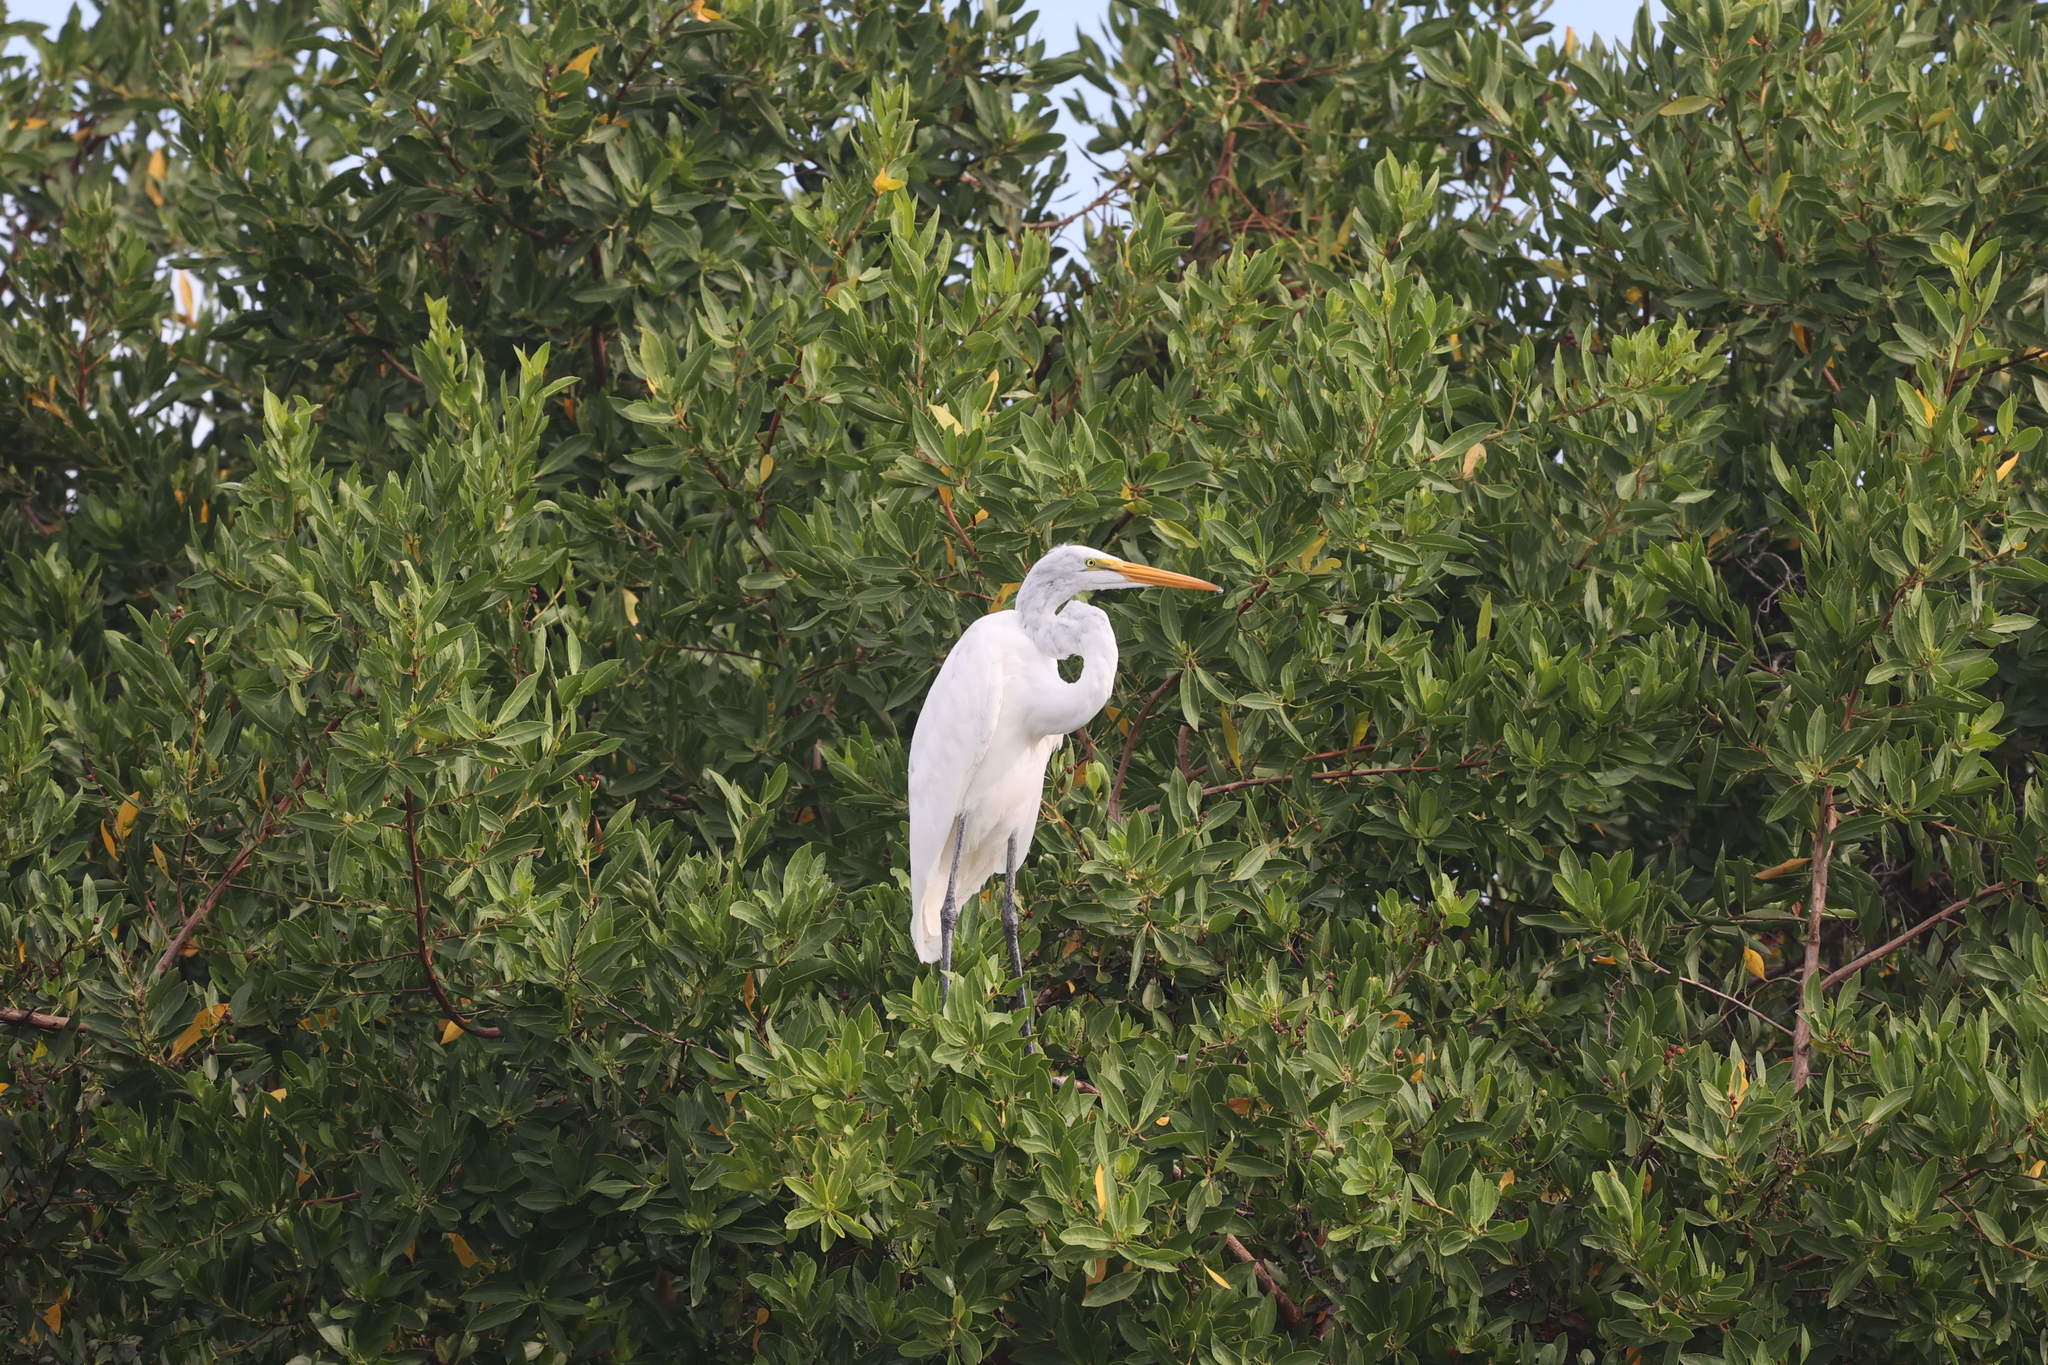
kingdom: Animalia
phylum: Chordata
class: Aves
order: Pelecaniformes
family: Ardeidae
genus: Ardea
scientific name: Ardea alba
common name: Great egret
